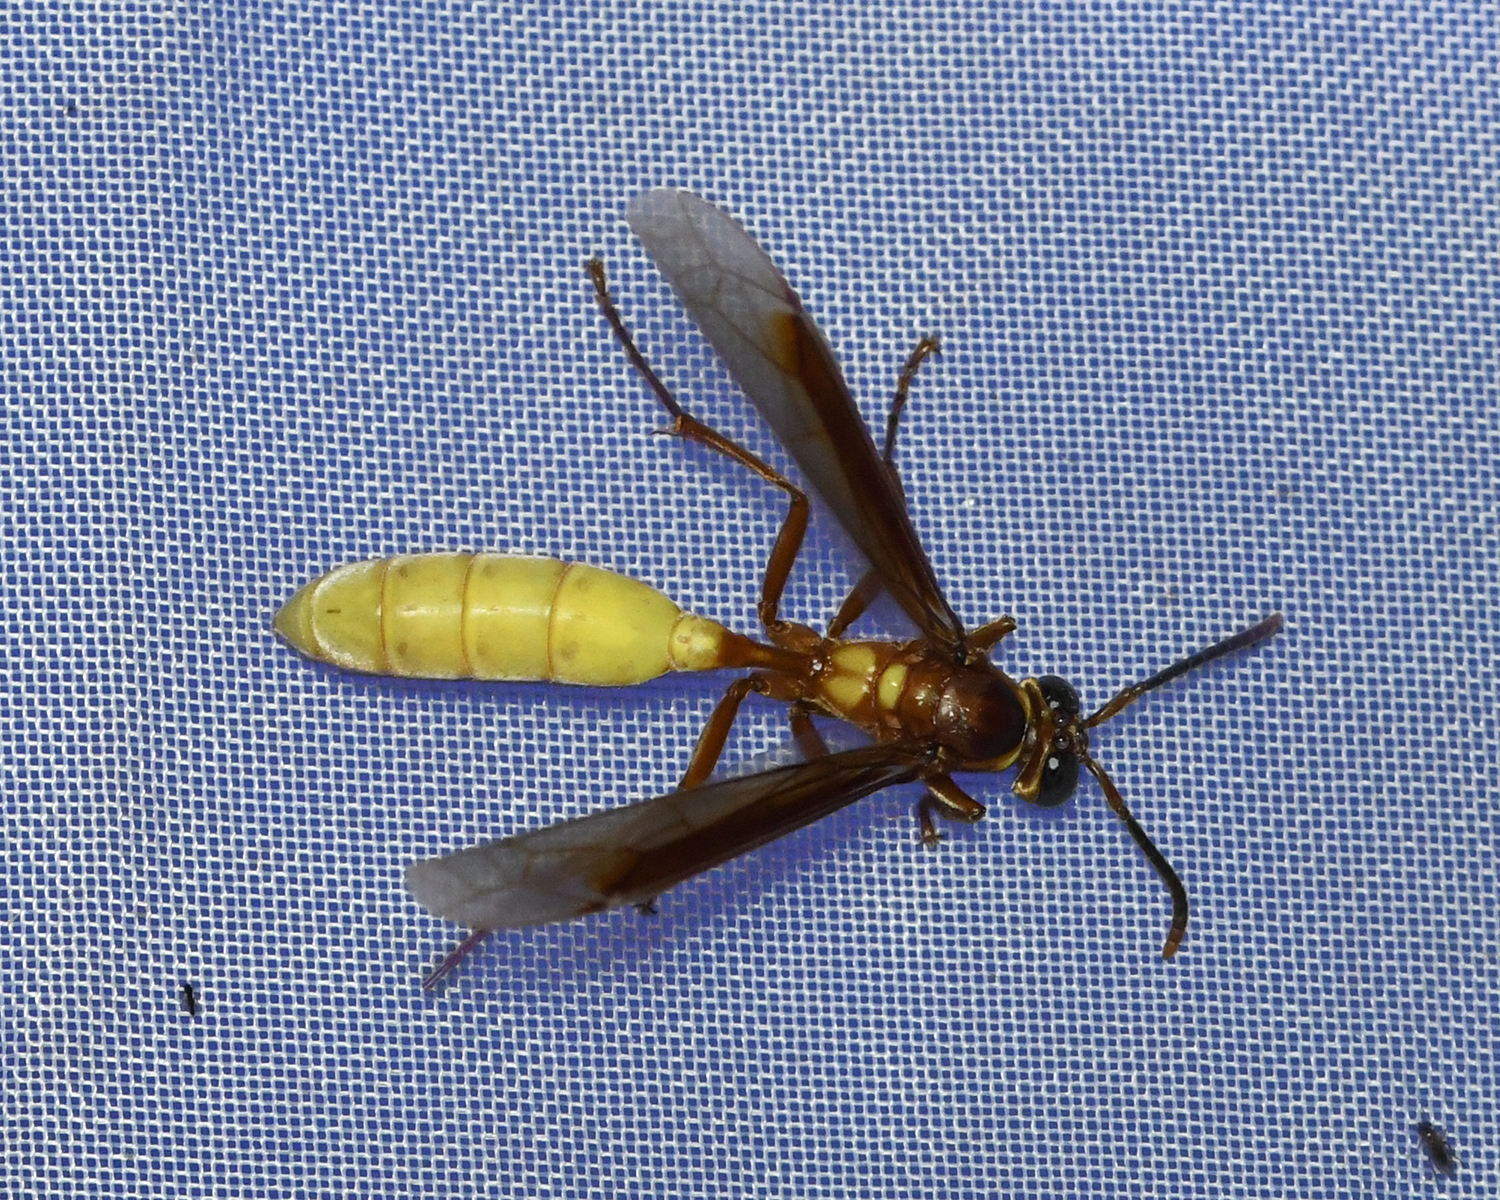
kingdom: Animalia
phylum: Arthropoda
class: Insecta
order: Hymenoptera
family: Vespidae
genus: Apoica
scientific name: Apoica gelida
